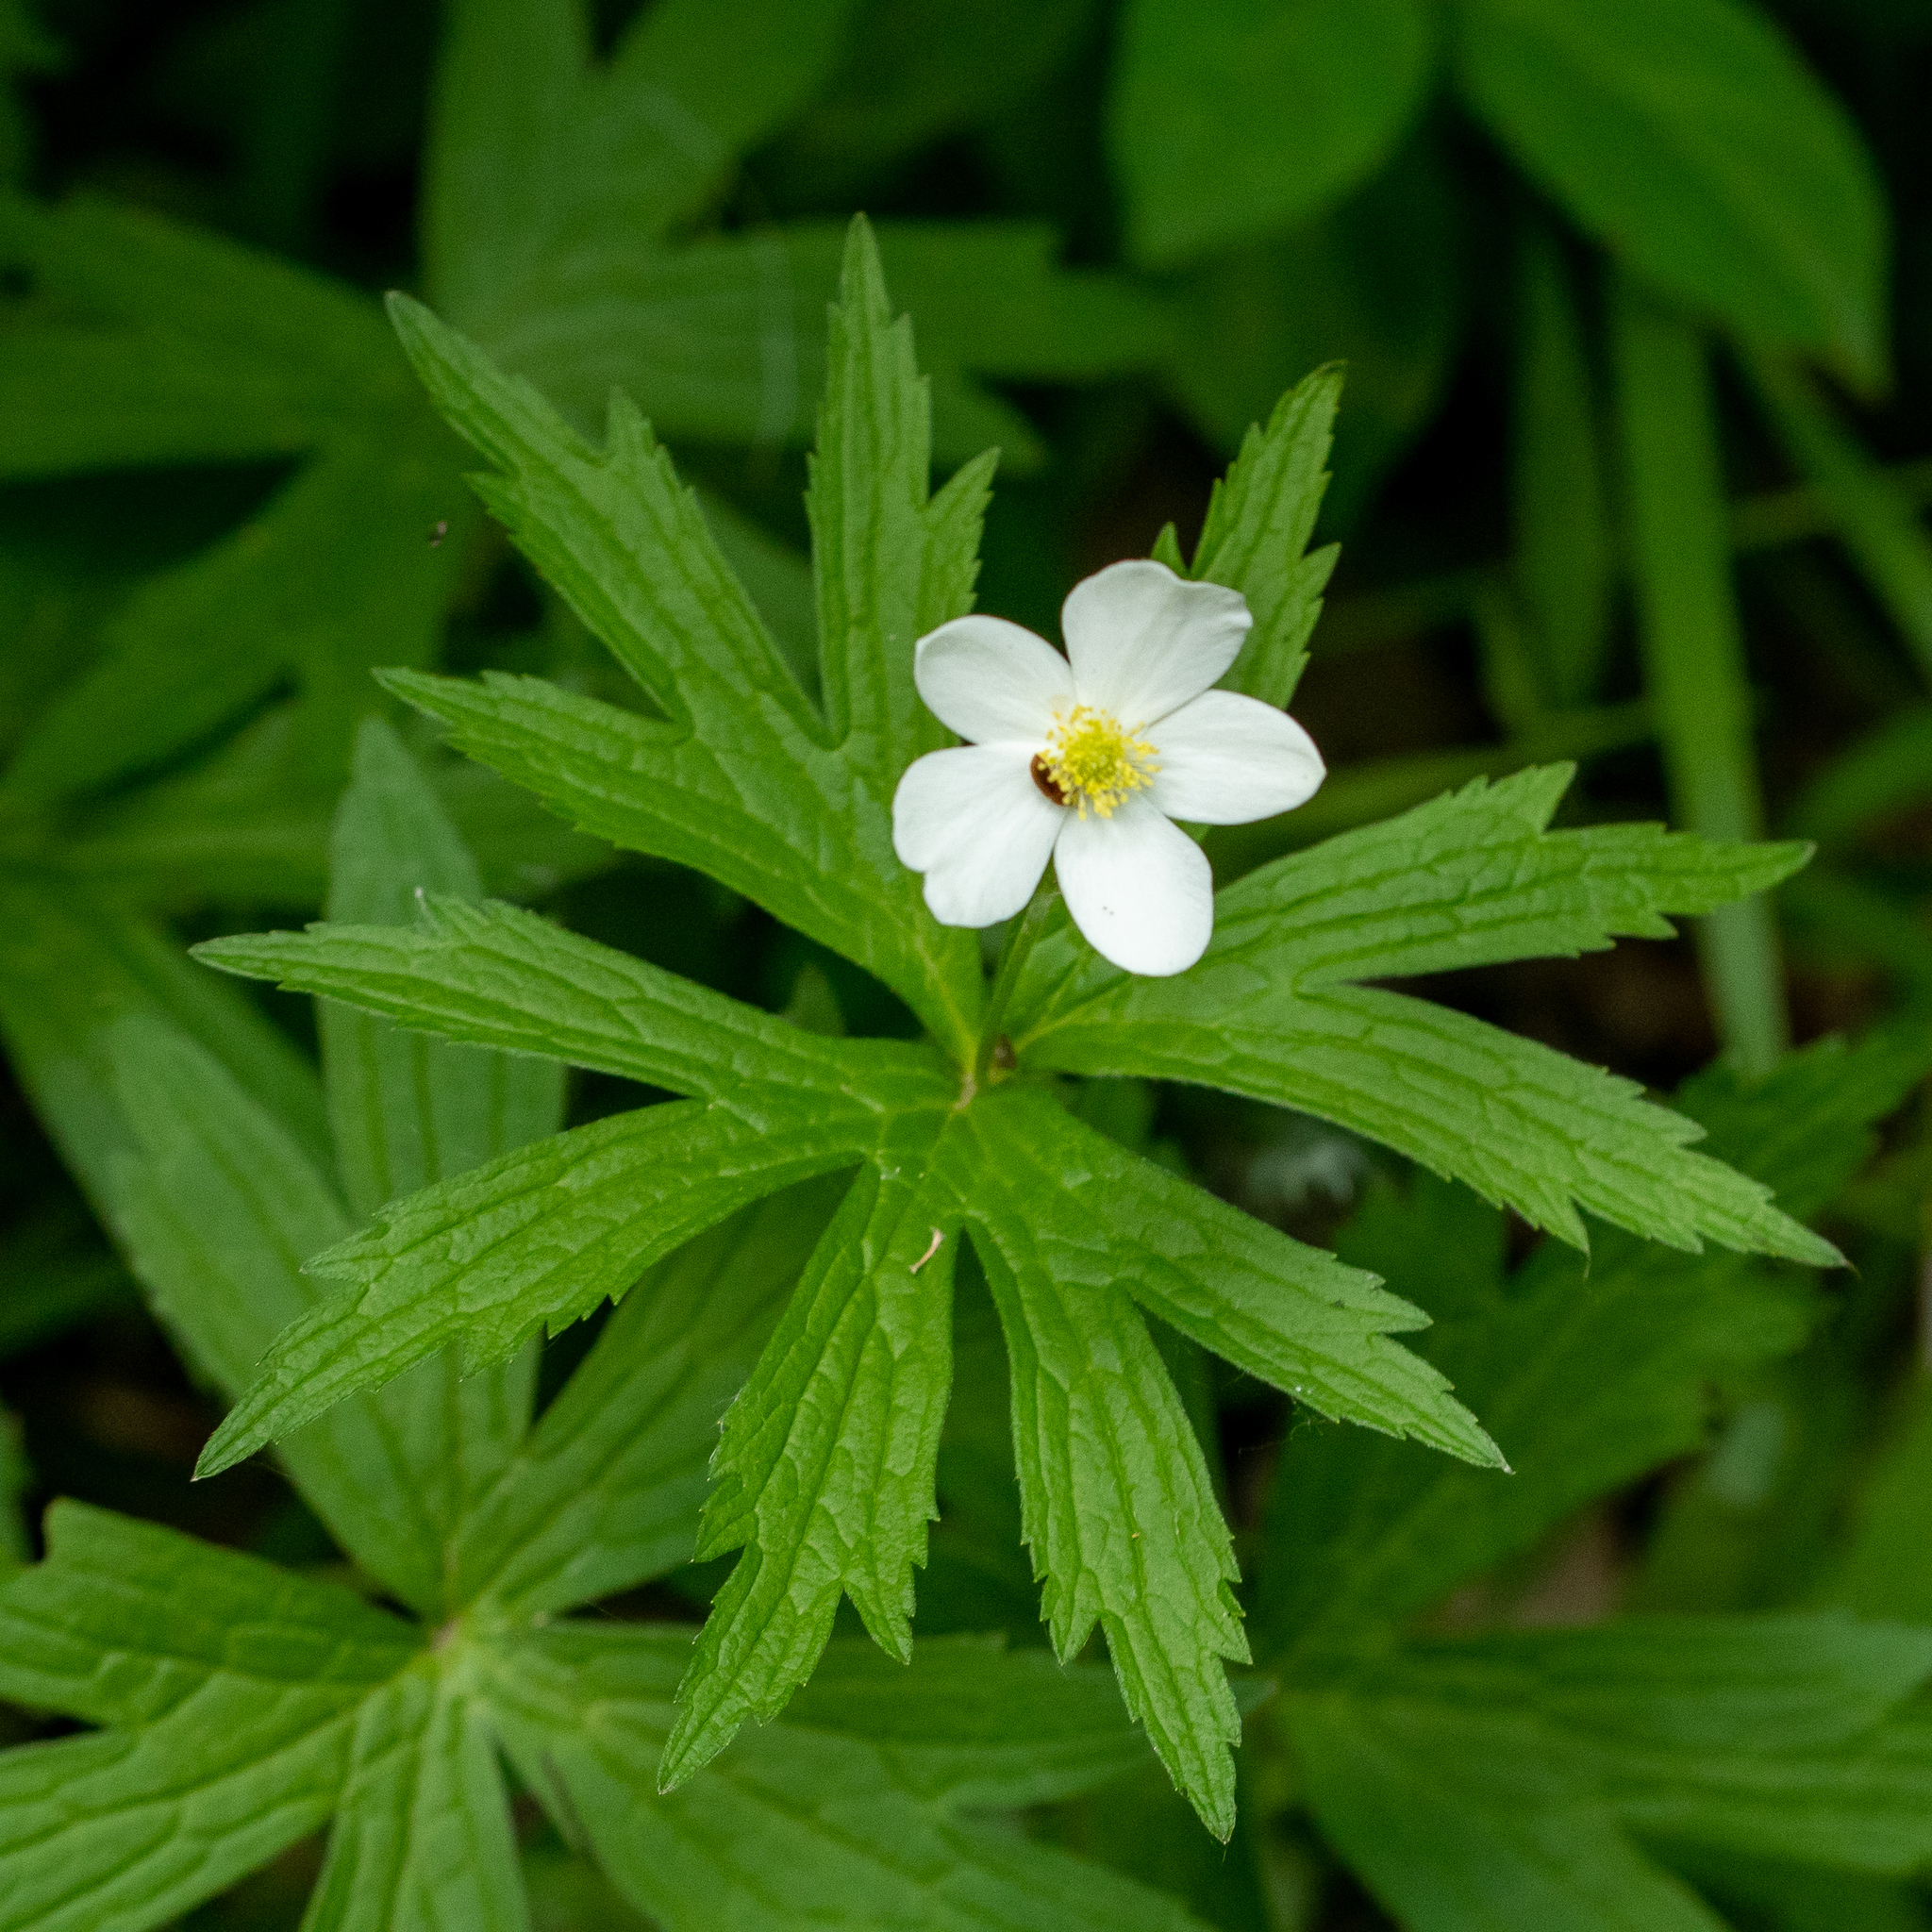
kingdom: Plantae
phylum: Tracheophyta
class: Magnoliopsida
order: Ranunculales
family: Ranunculaceae
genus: Anemonastrum
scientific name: Anemonastrum canadense
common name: Canada anemone
